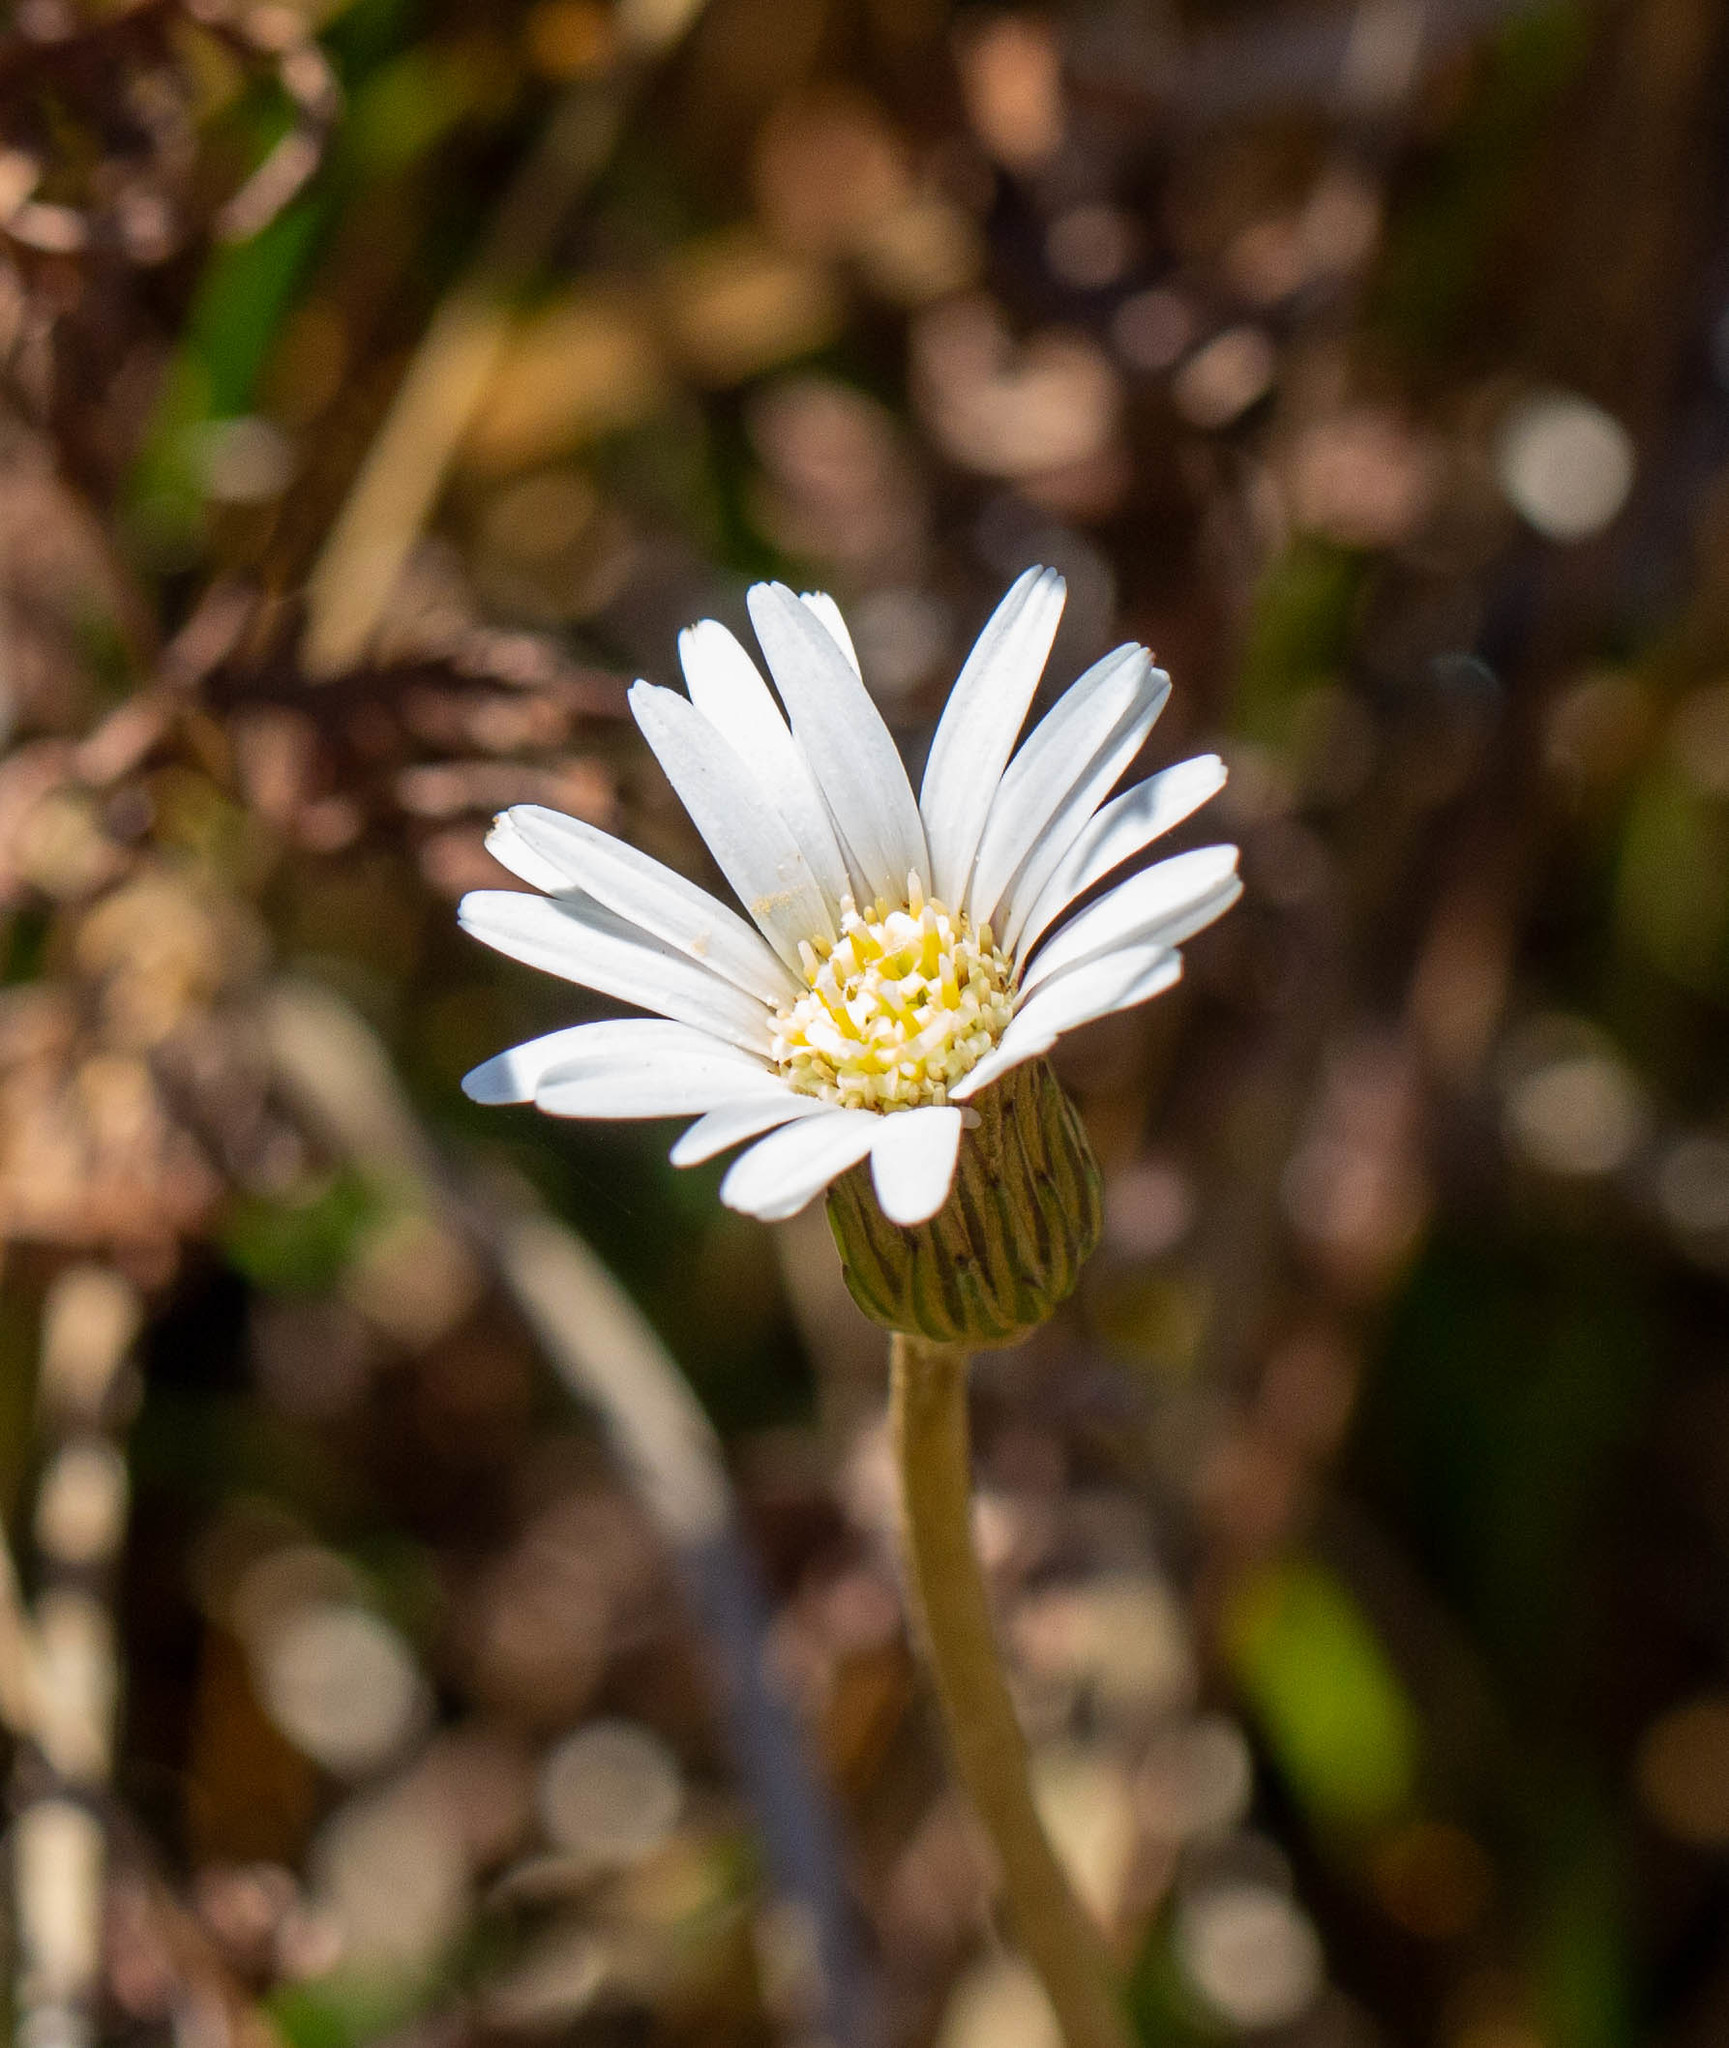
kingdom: Plantae
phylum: Tracheophyta
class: Magnoliopsida
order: Asterales
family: Asteraceae
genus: Chaptalia
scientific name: Chaptalia tomentosa
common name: Woolly sunbonnet
